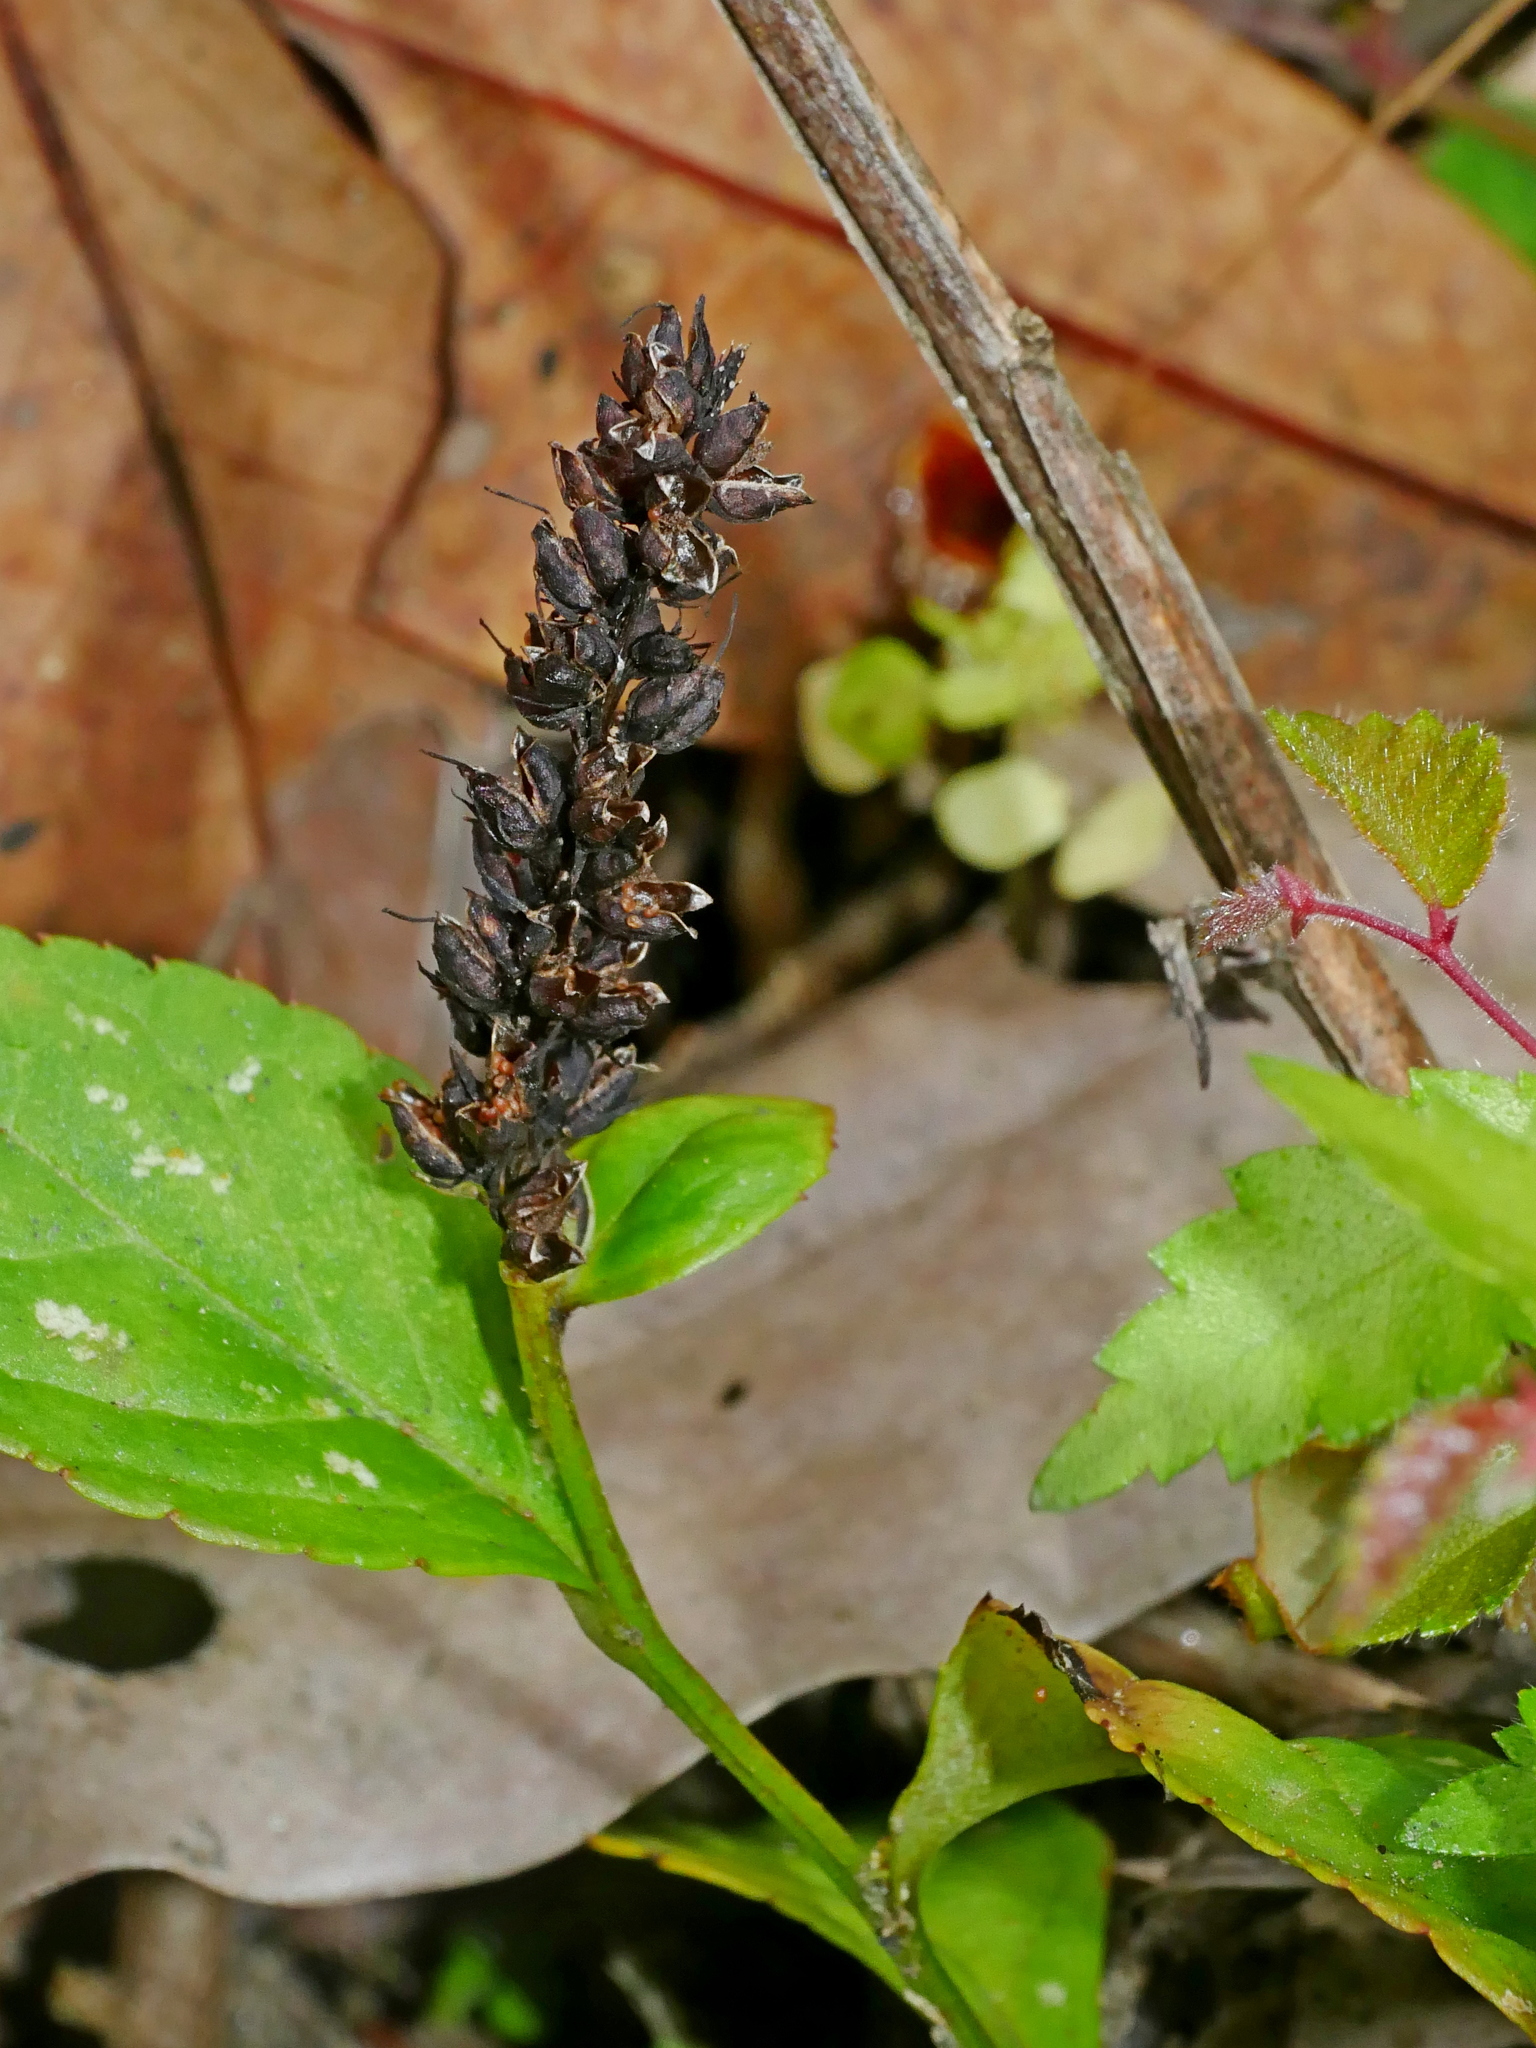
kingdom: Plantae
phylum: Tracheophyta
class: Magnoliopsida
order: Lamiales
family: Plantaginaceae
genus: Veronicastrum
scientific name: Veronicastrum loshanense
